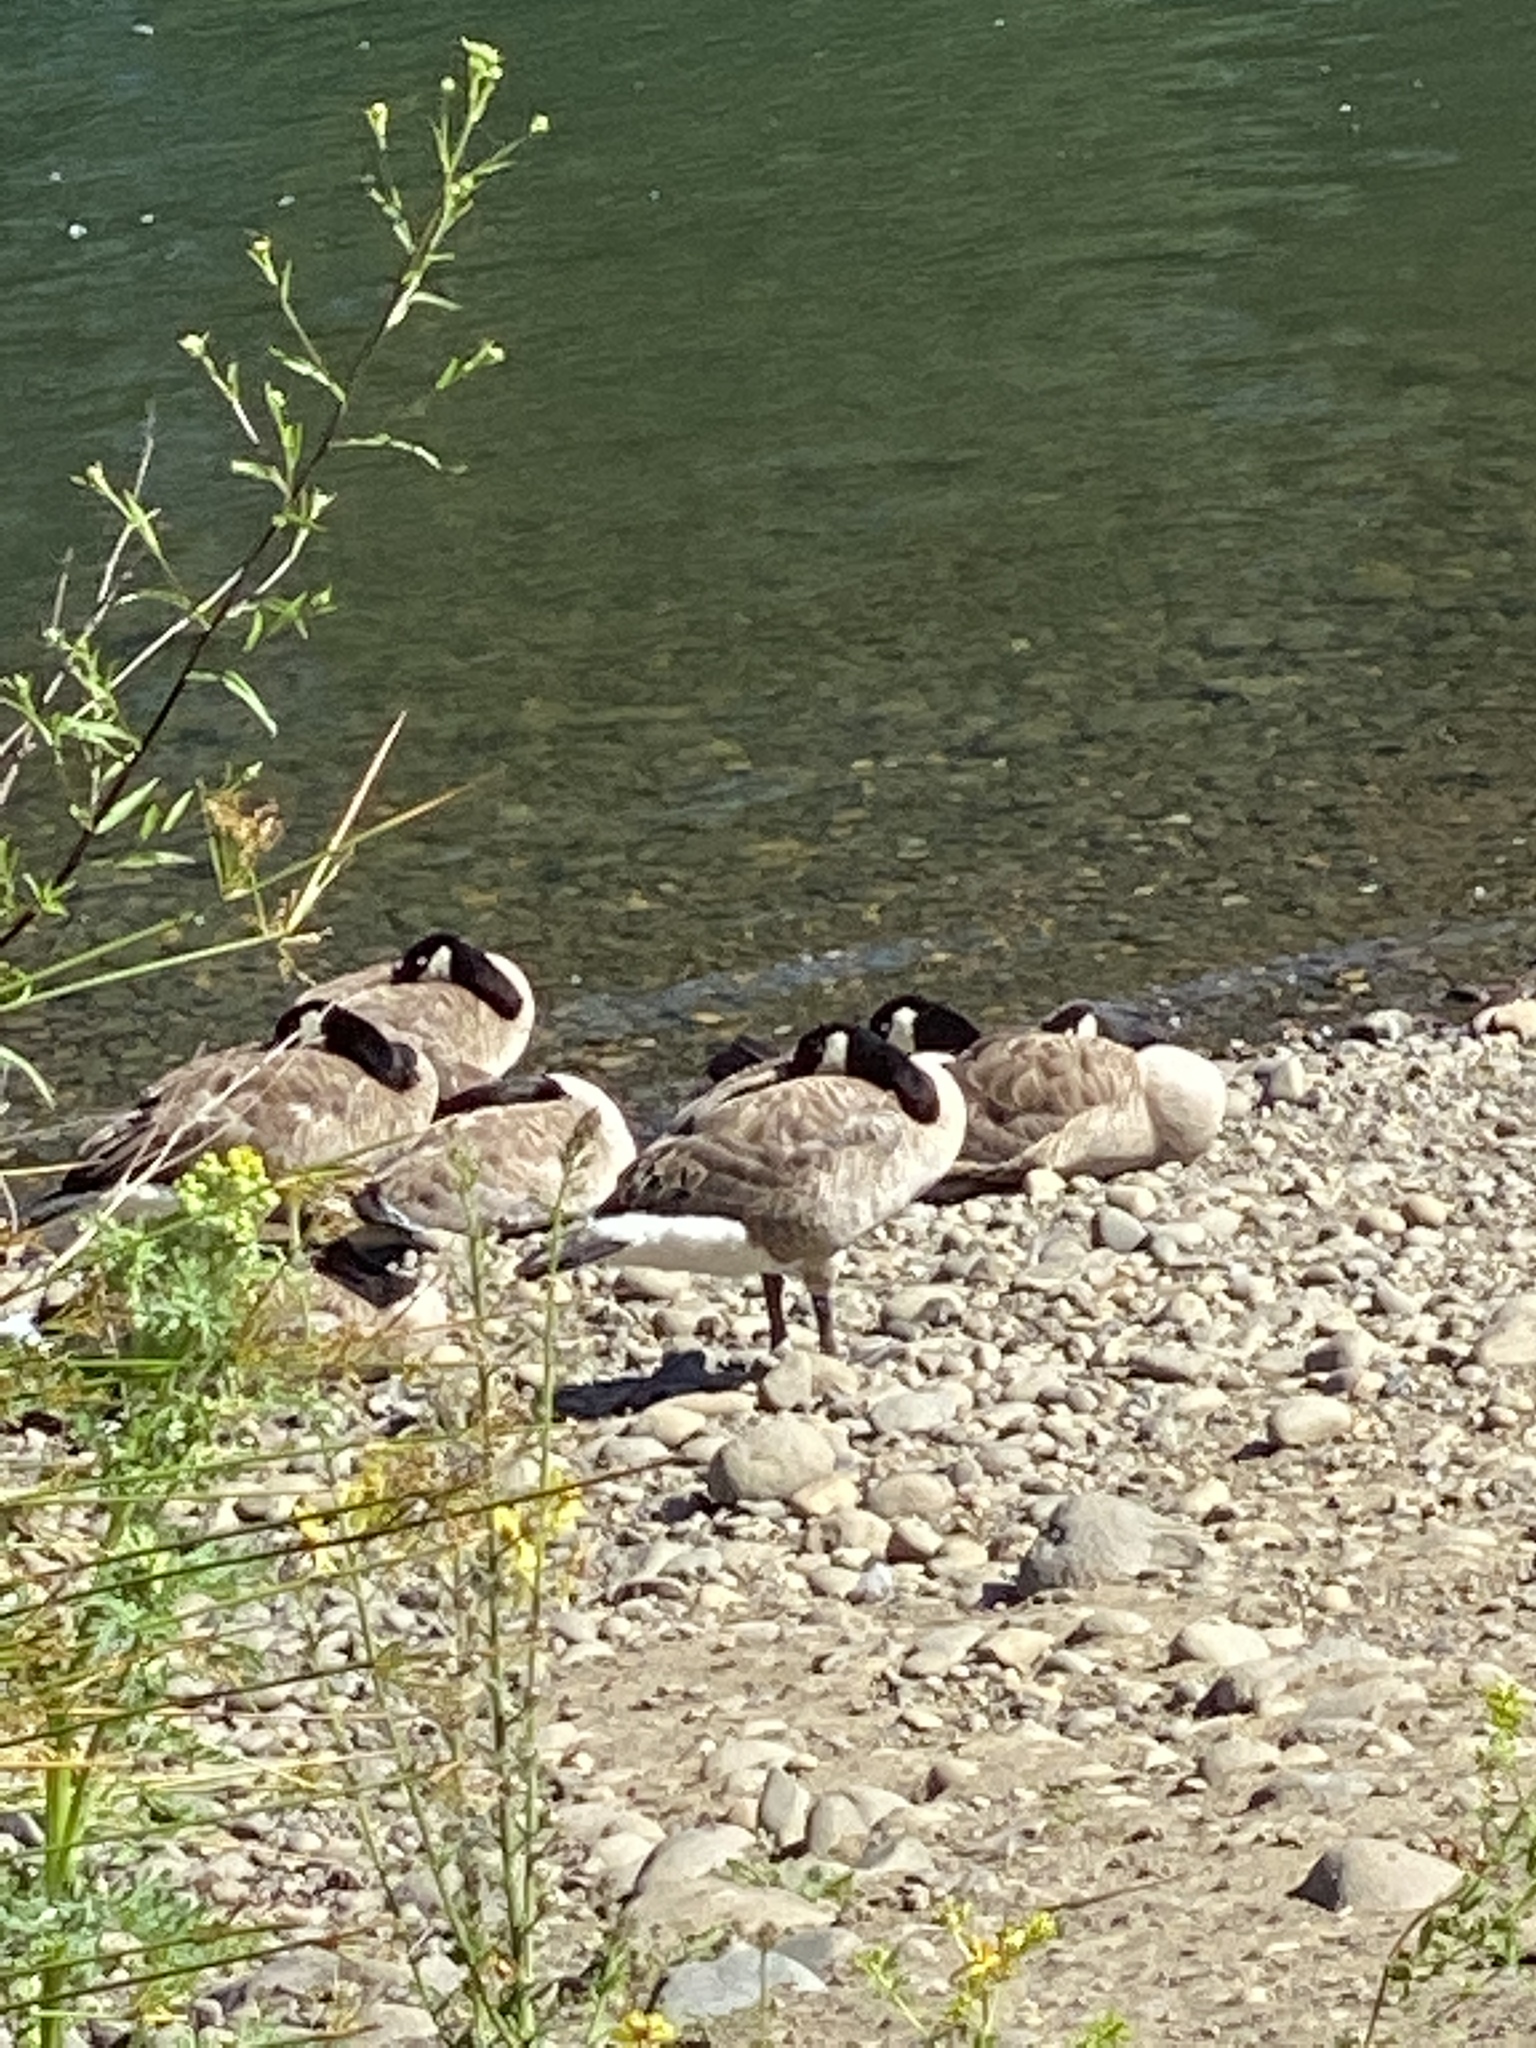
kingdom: Animalia
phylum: Chordata
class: Aves
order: Anseriformes
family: Anatidae
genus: Branta
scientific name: Branta canadensis
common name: Canada goose
